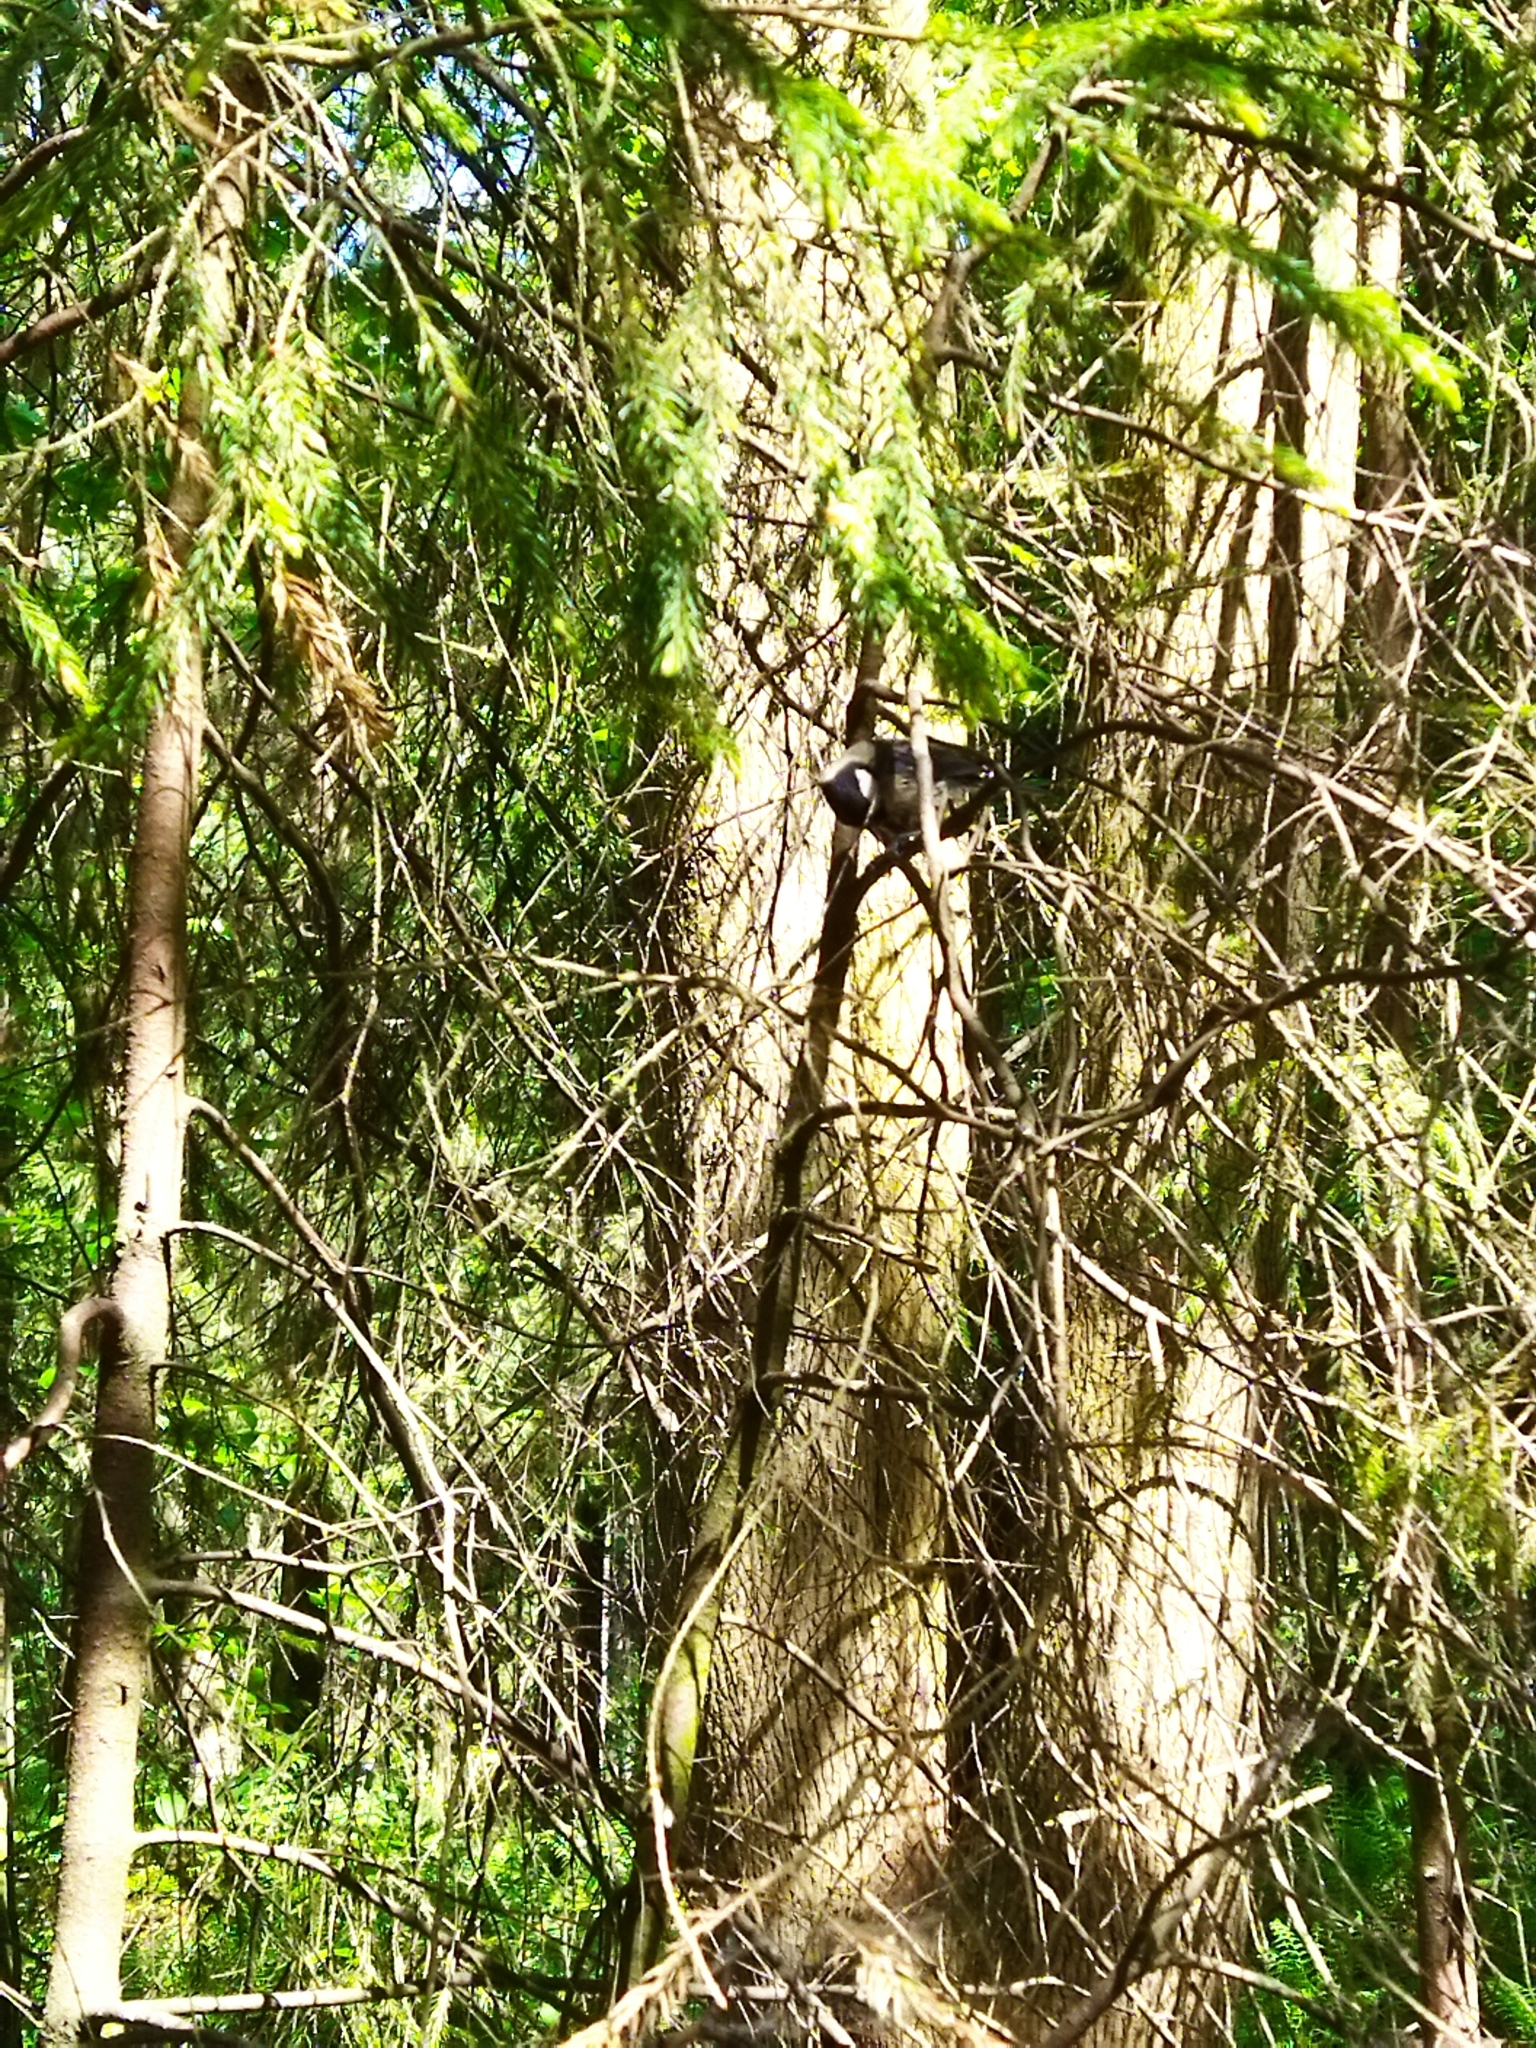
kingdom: Animalia
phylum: Chordata
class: Aves
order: Passeriformes
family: Paridae
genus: Parus
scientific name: Parus major
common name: Great tit
